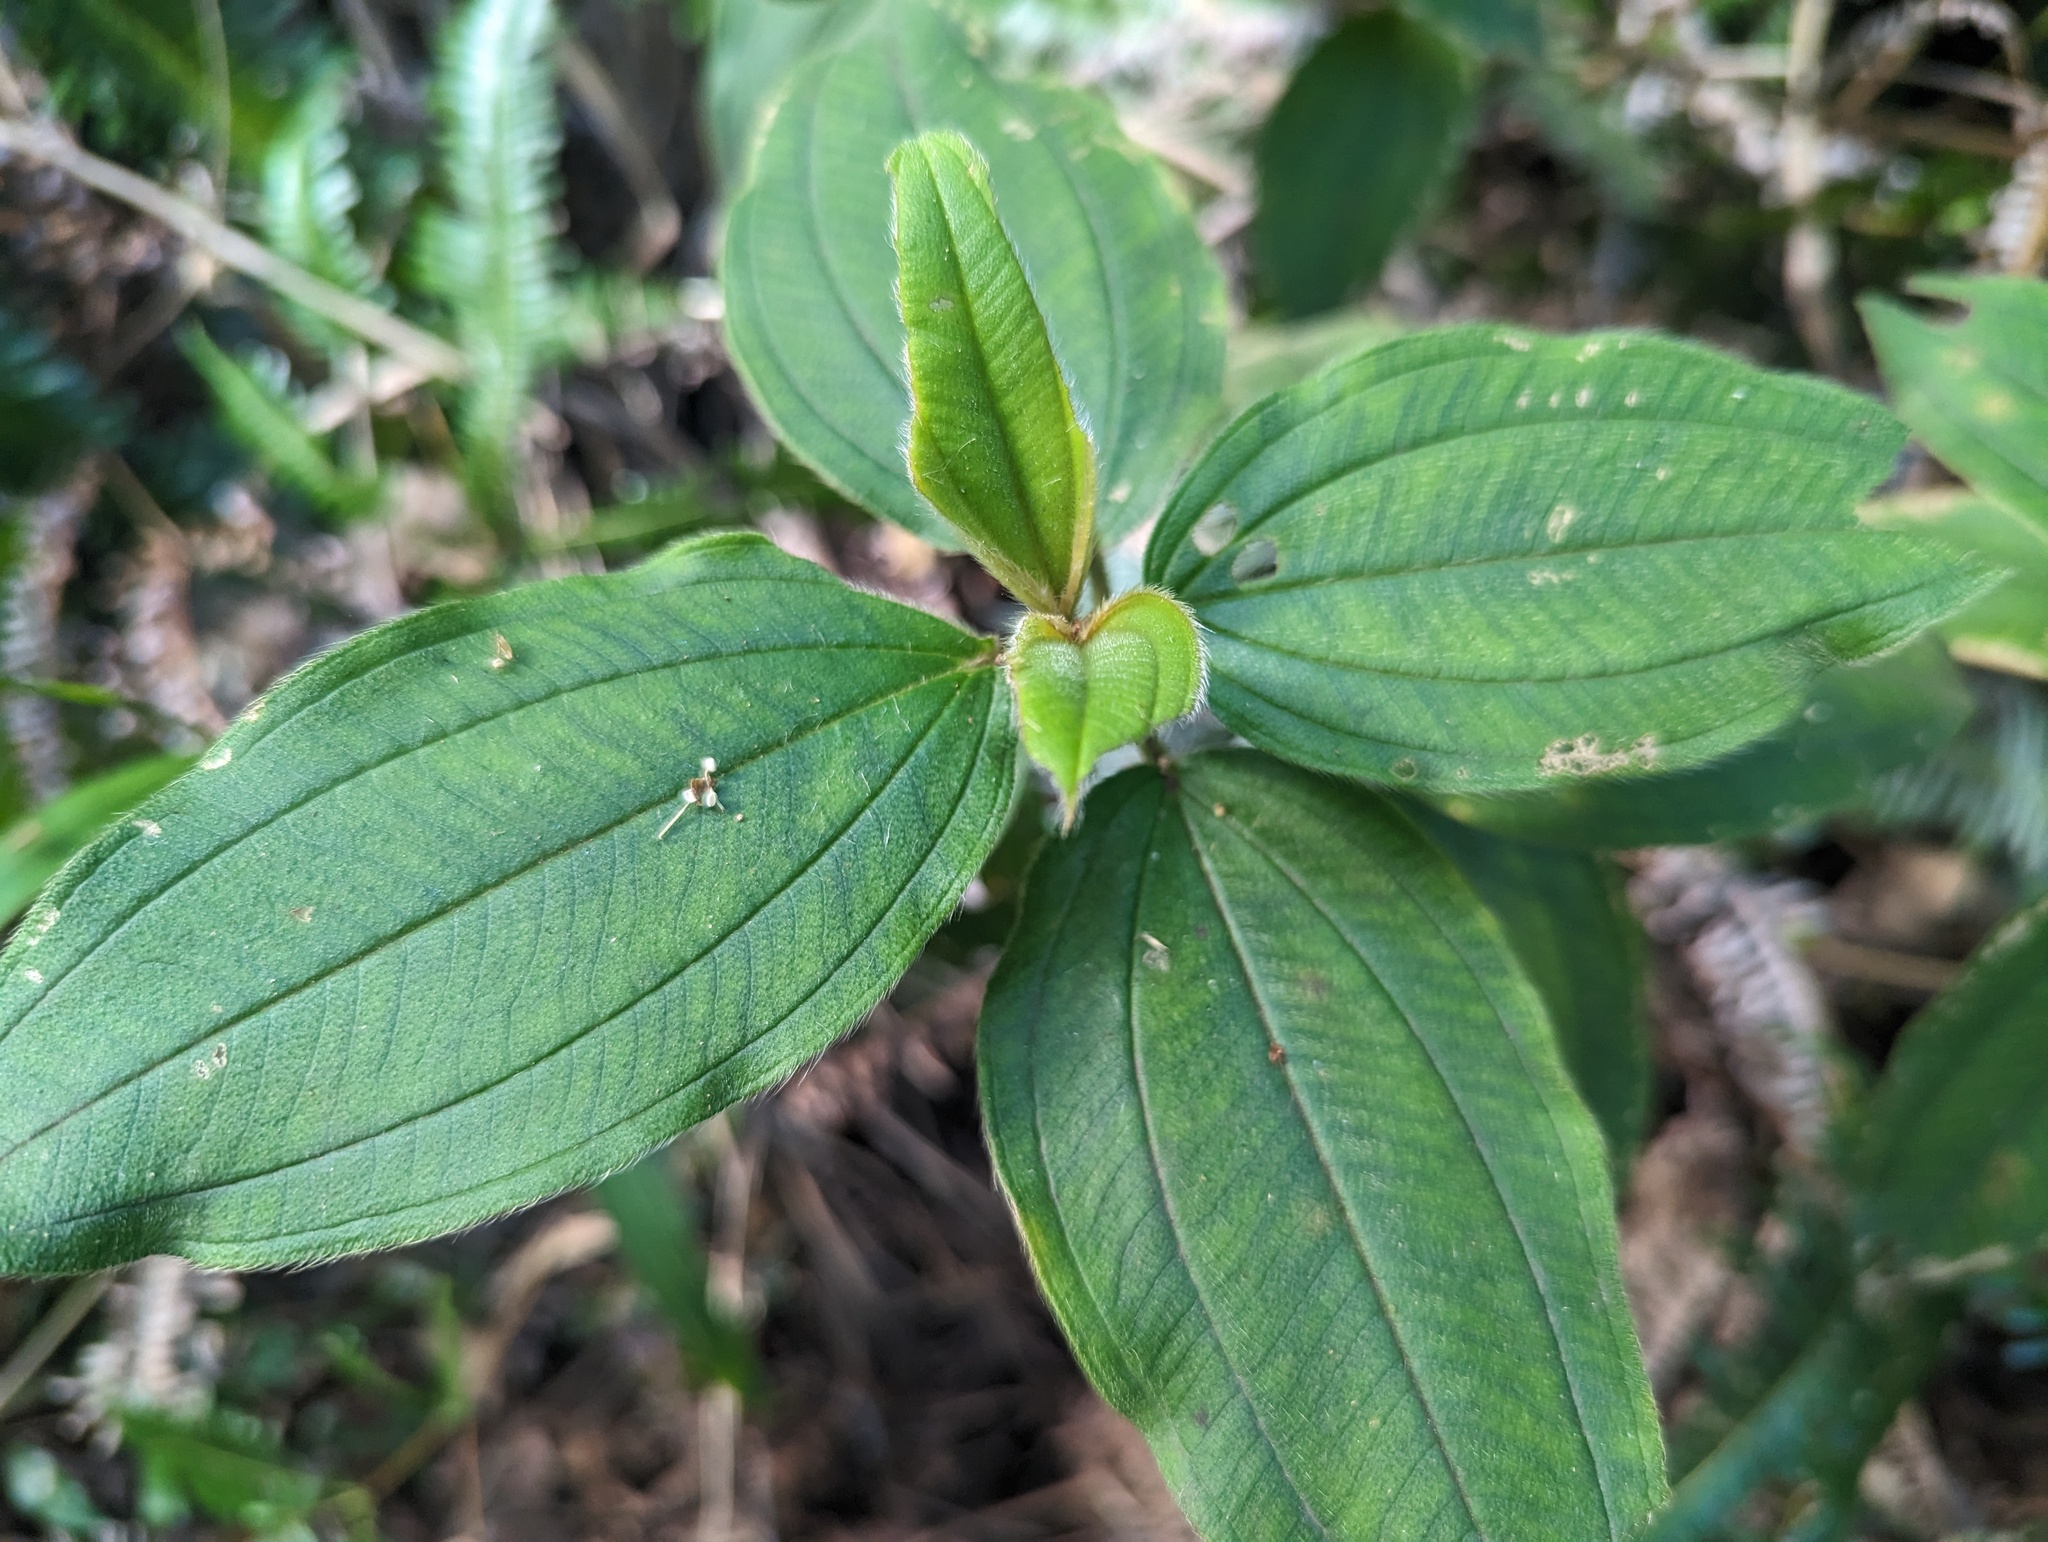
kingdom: Plantae
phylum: Tracheophyta
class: Magnoliopsida
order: Myrtales
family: Melastomataceae
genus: Melastoma
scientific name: Melastoma malabathricum
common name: Indian-rhododendron
